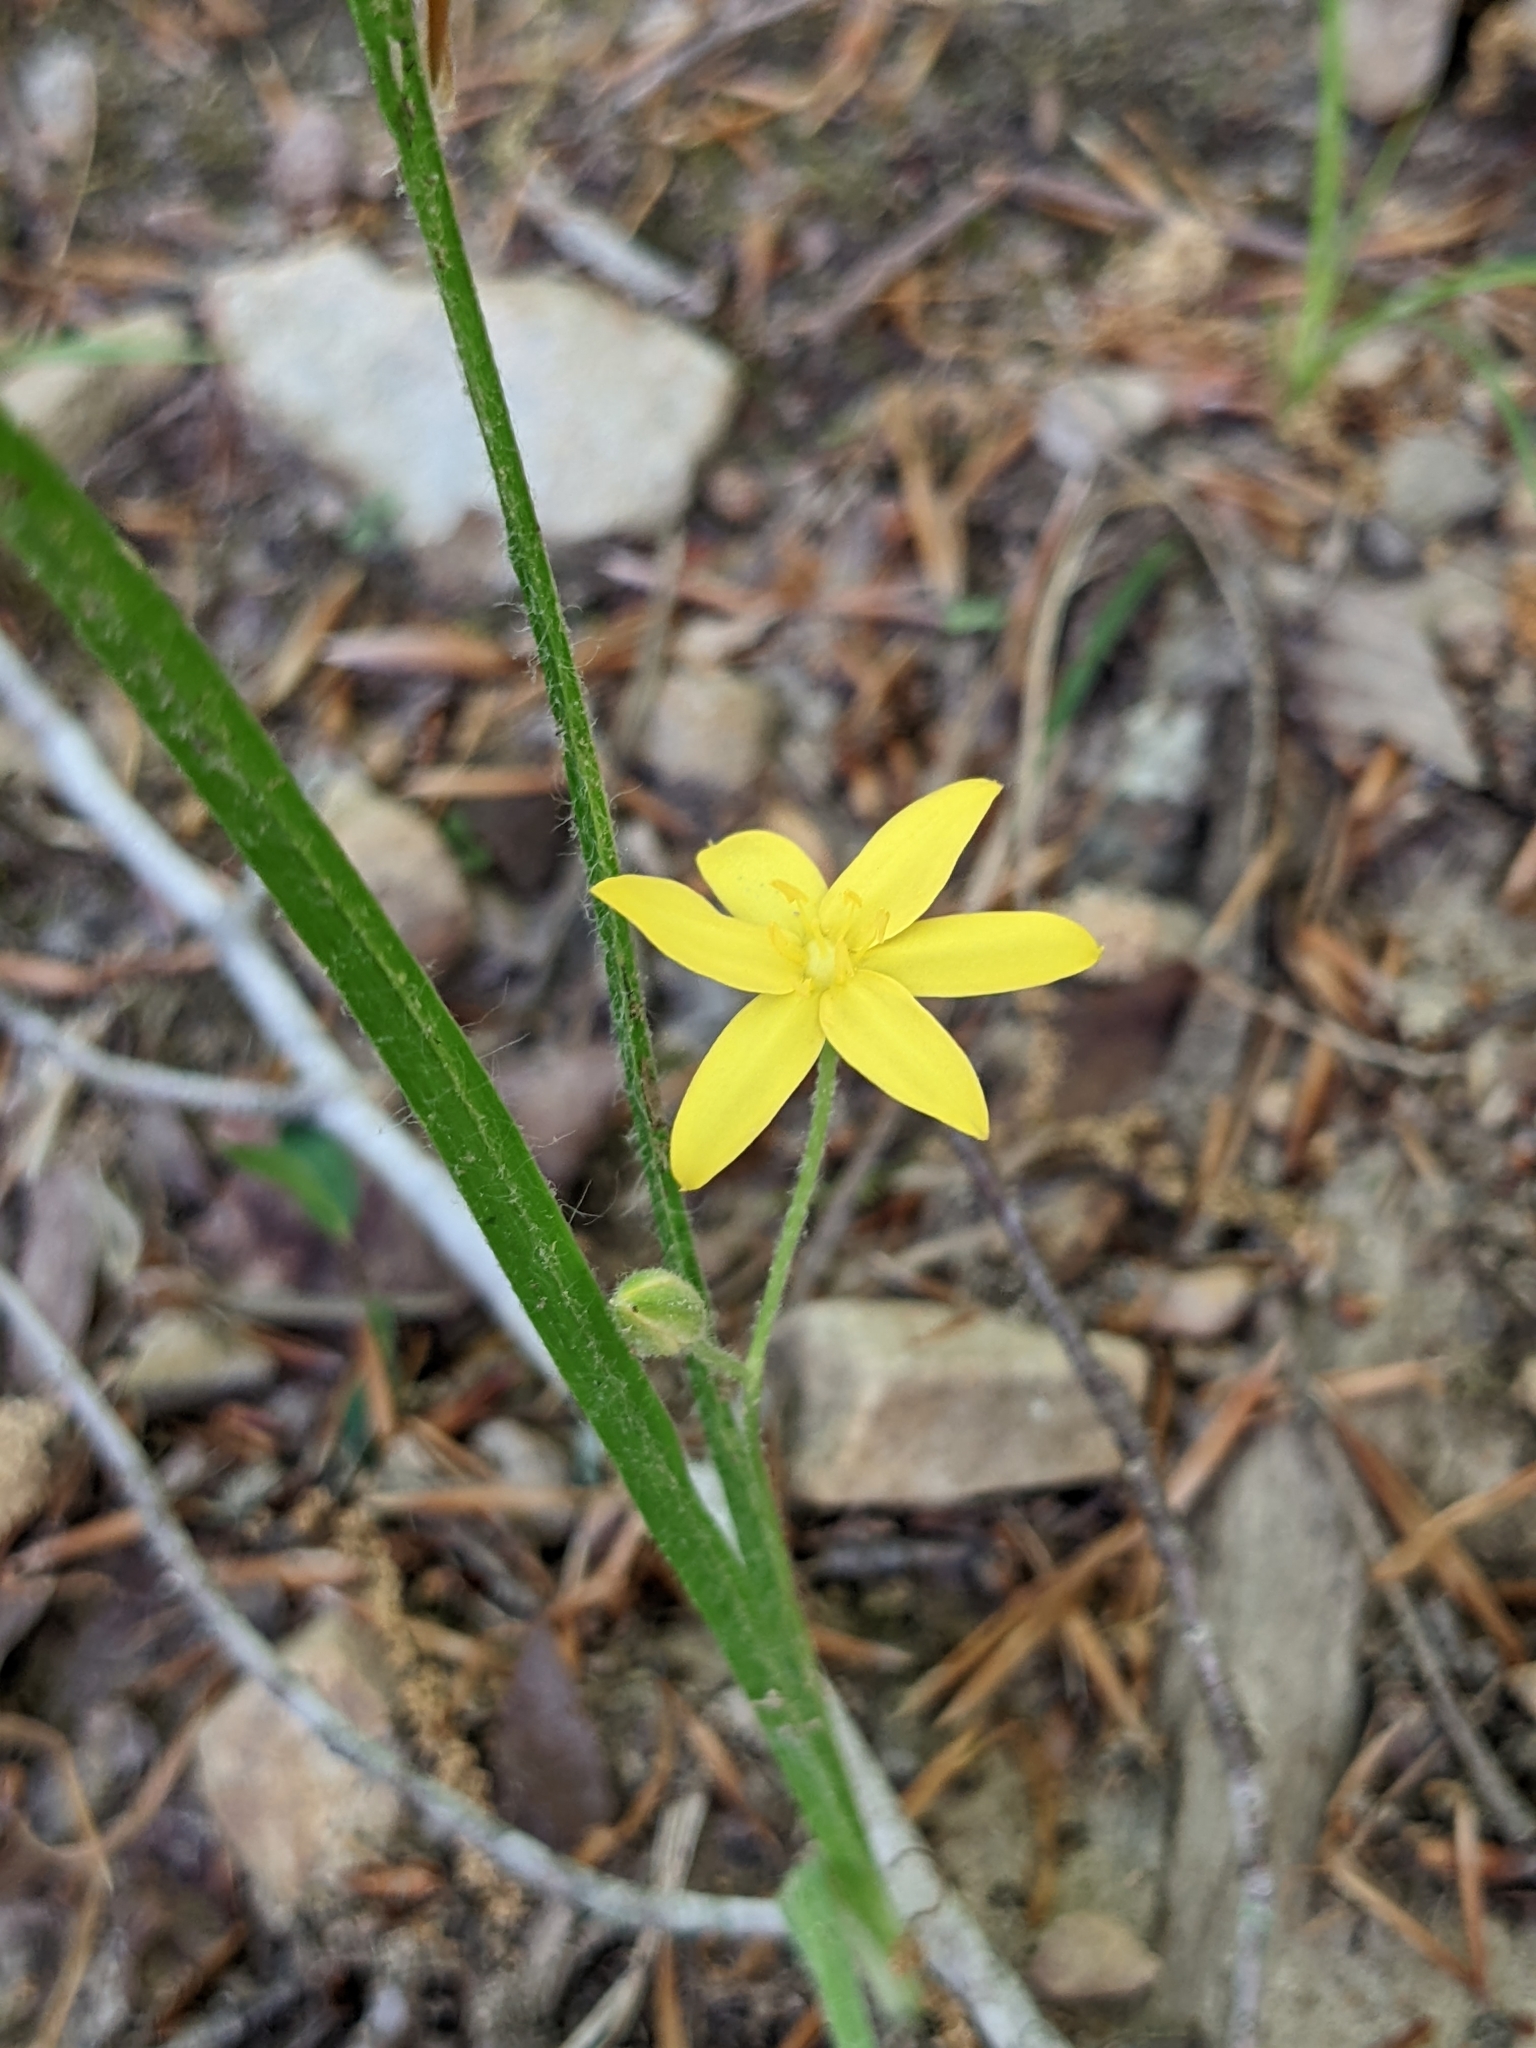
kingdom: Plantae
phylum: Tracheophyta
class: Liliopsida
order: Asparagales
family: Hypoxidaceae
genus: Hypoxis
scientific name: Hypoxis hirsuta
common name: Common goldstar
